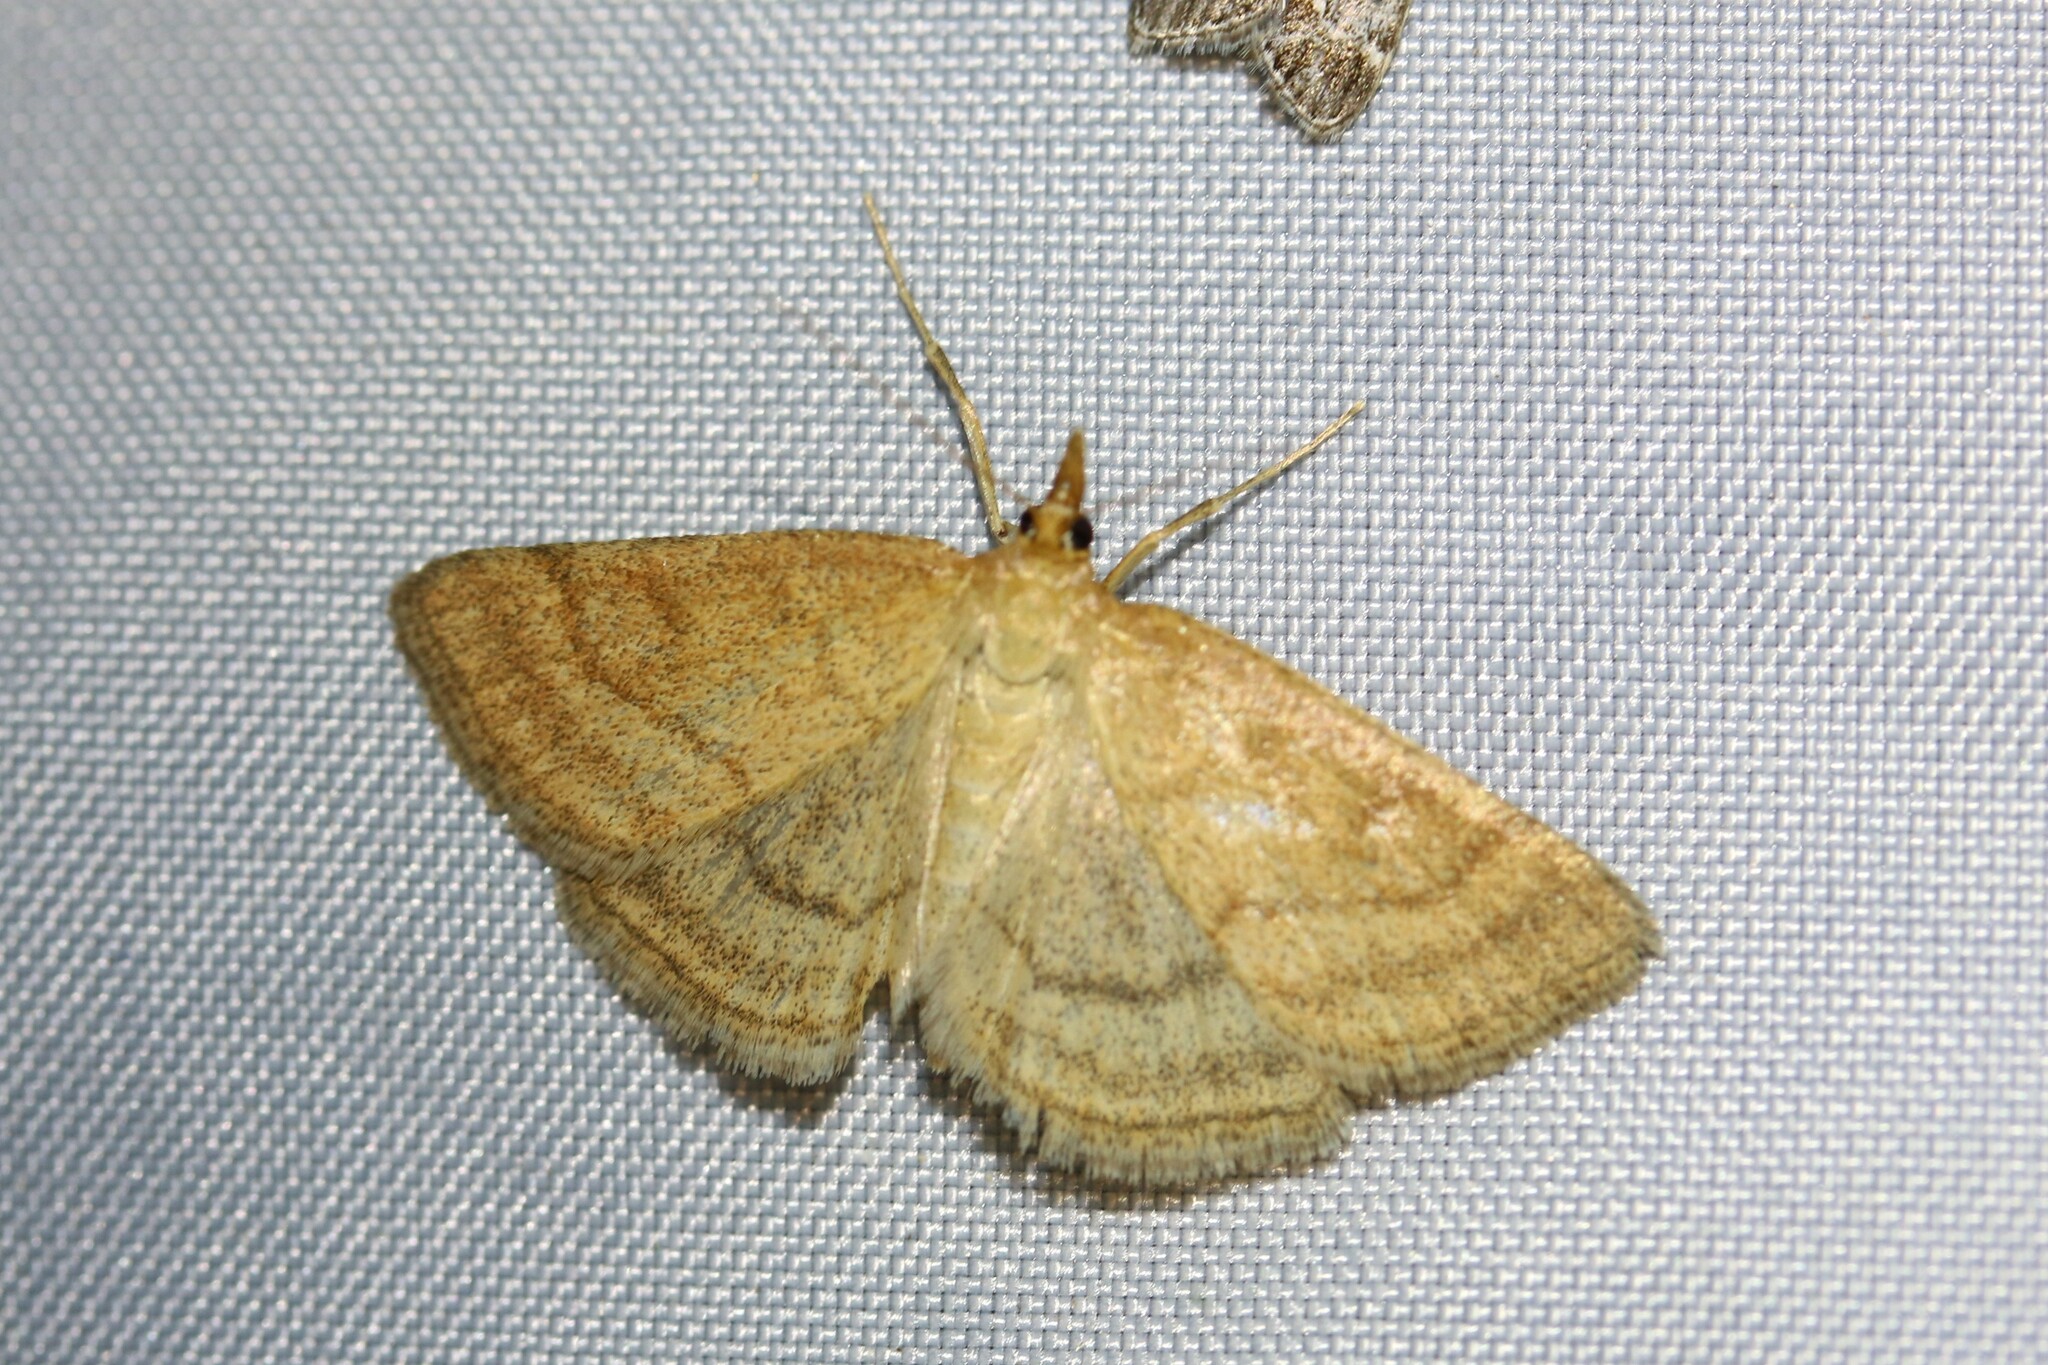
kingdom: Animalia
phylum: Arthropoda
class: Insecta
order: Lepidoptera
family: Crambidae
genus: Psammotis
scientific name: Psammotis viminalis
